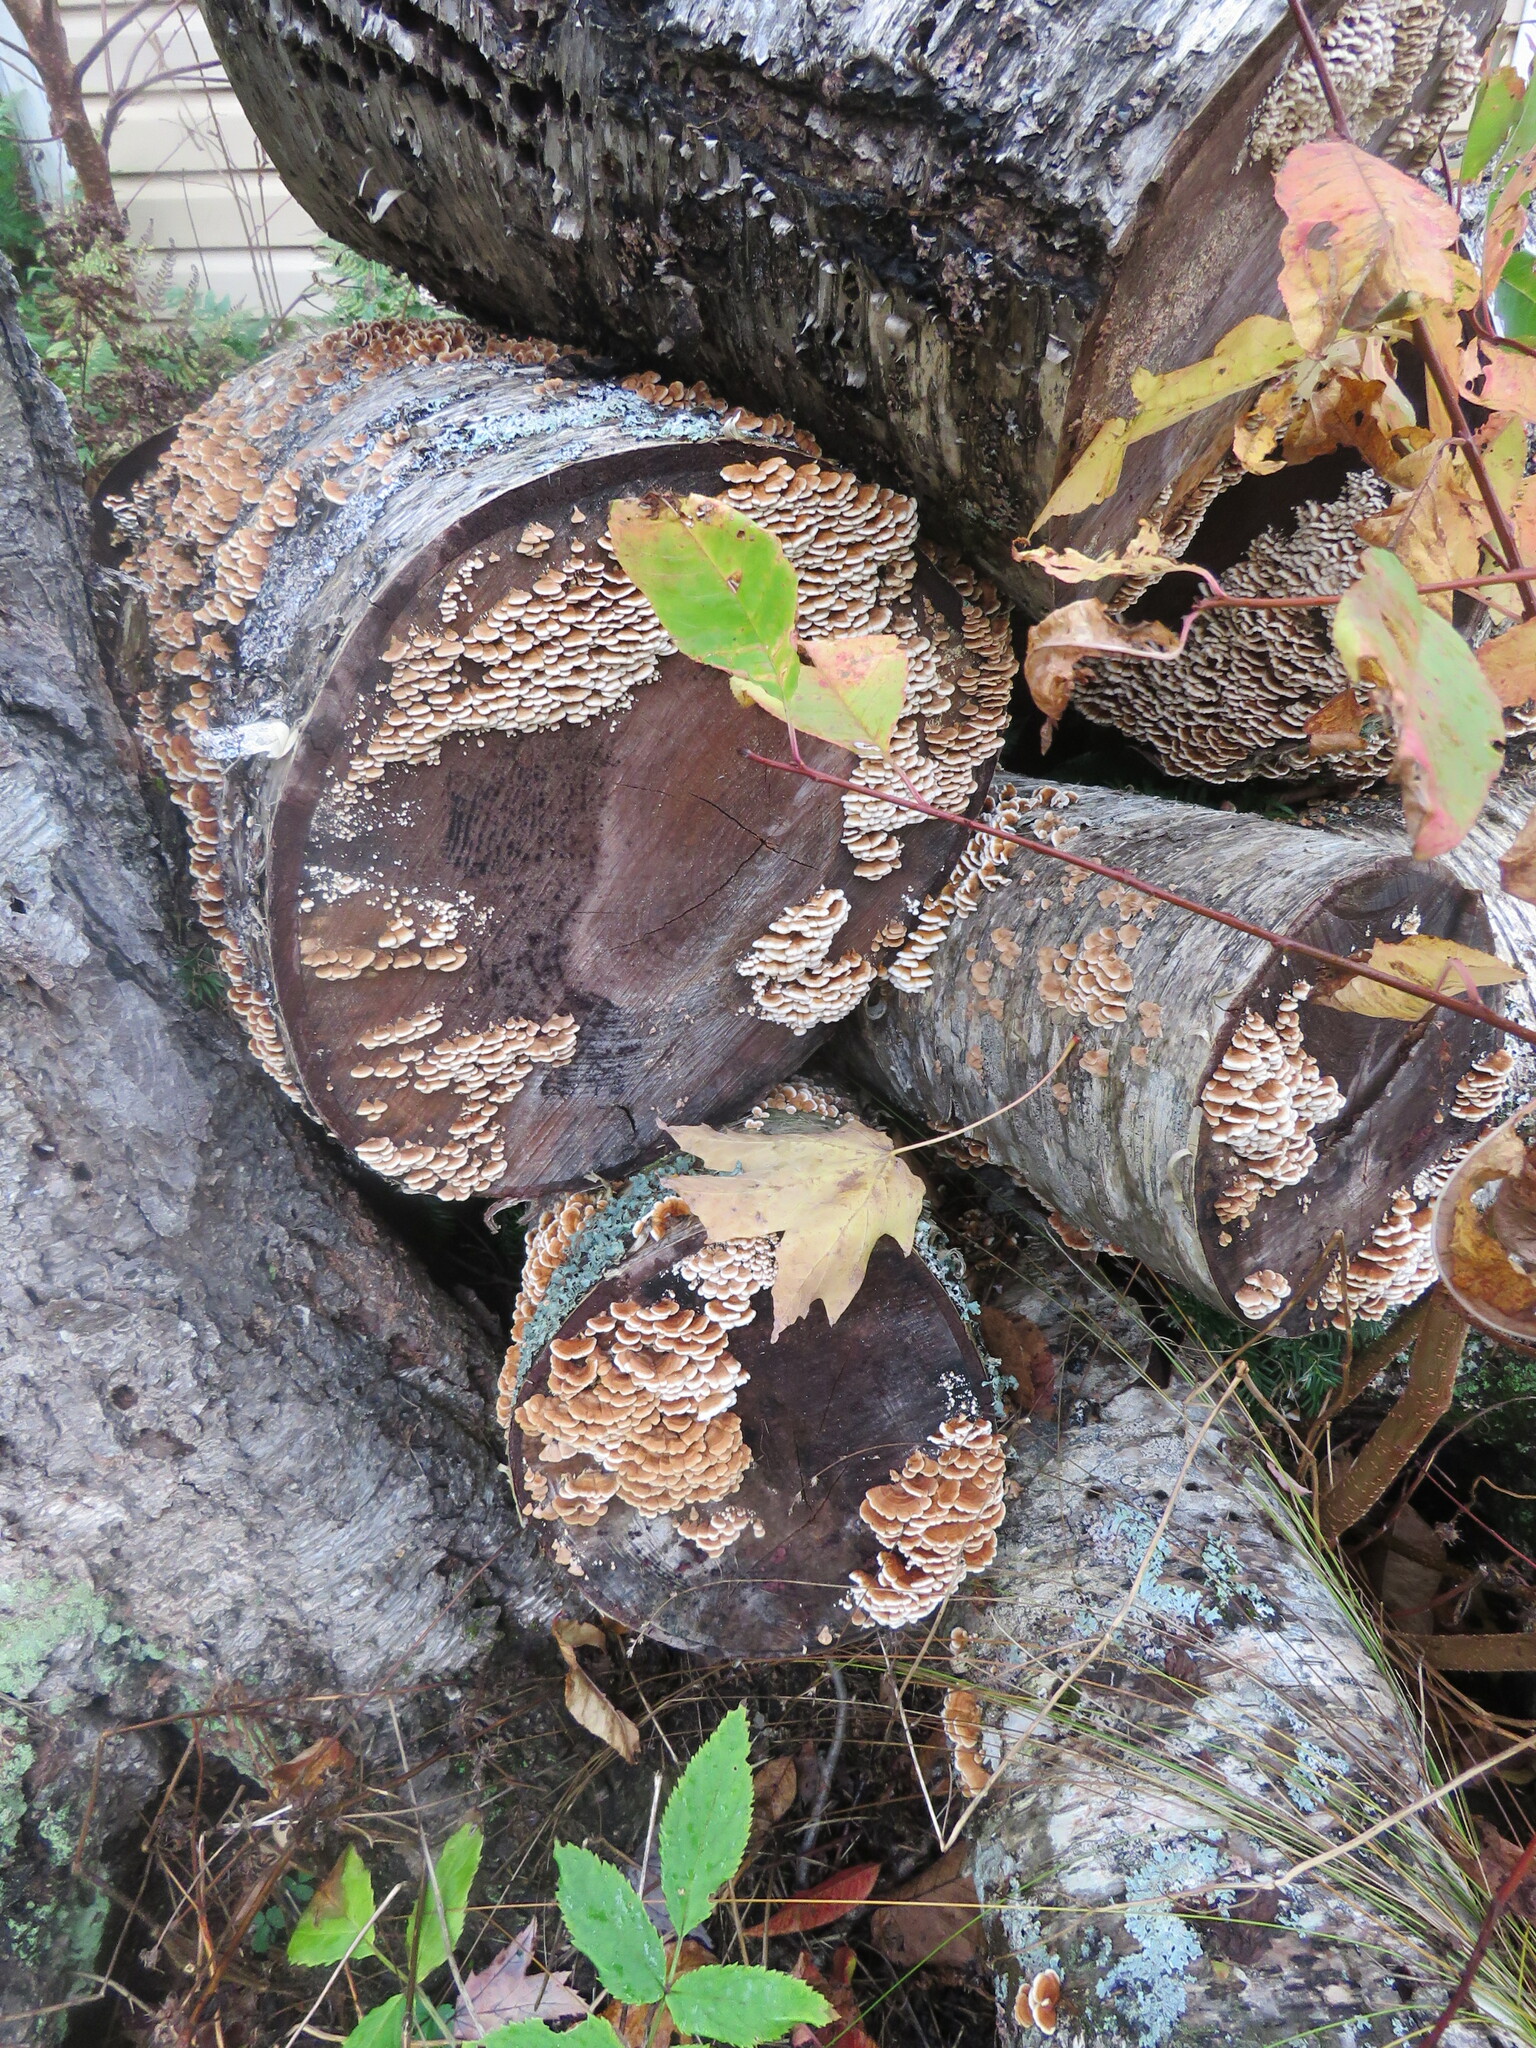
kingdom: Fungi
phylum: Basidiomycota
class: Agaricomycetes
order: Amylocorticiales
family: Amylocorticiaceae
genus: Plicaturopsis
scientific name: Plicaturopsis crispa
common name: Crimped gill
